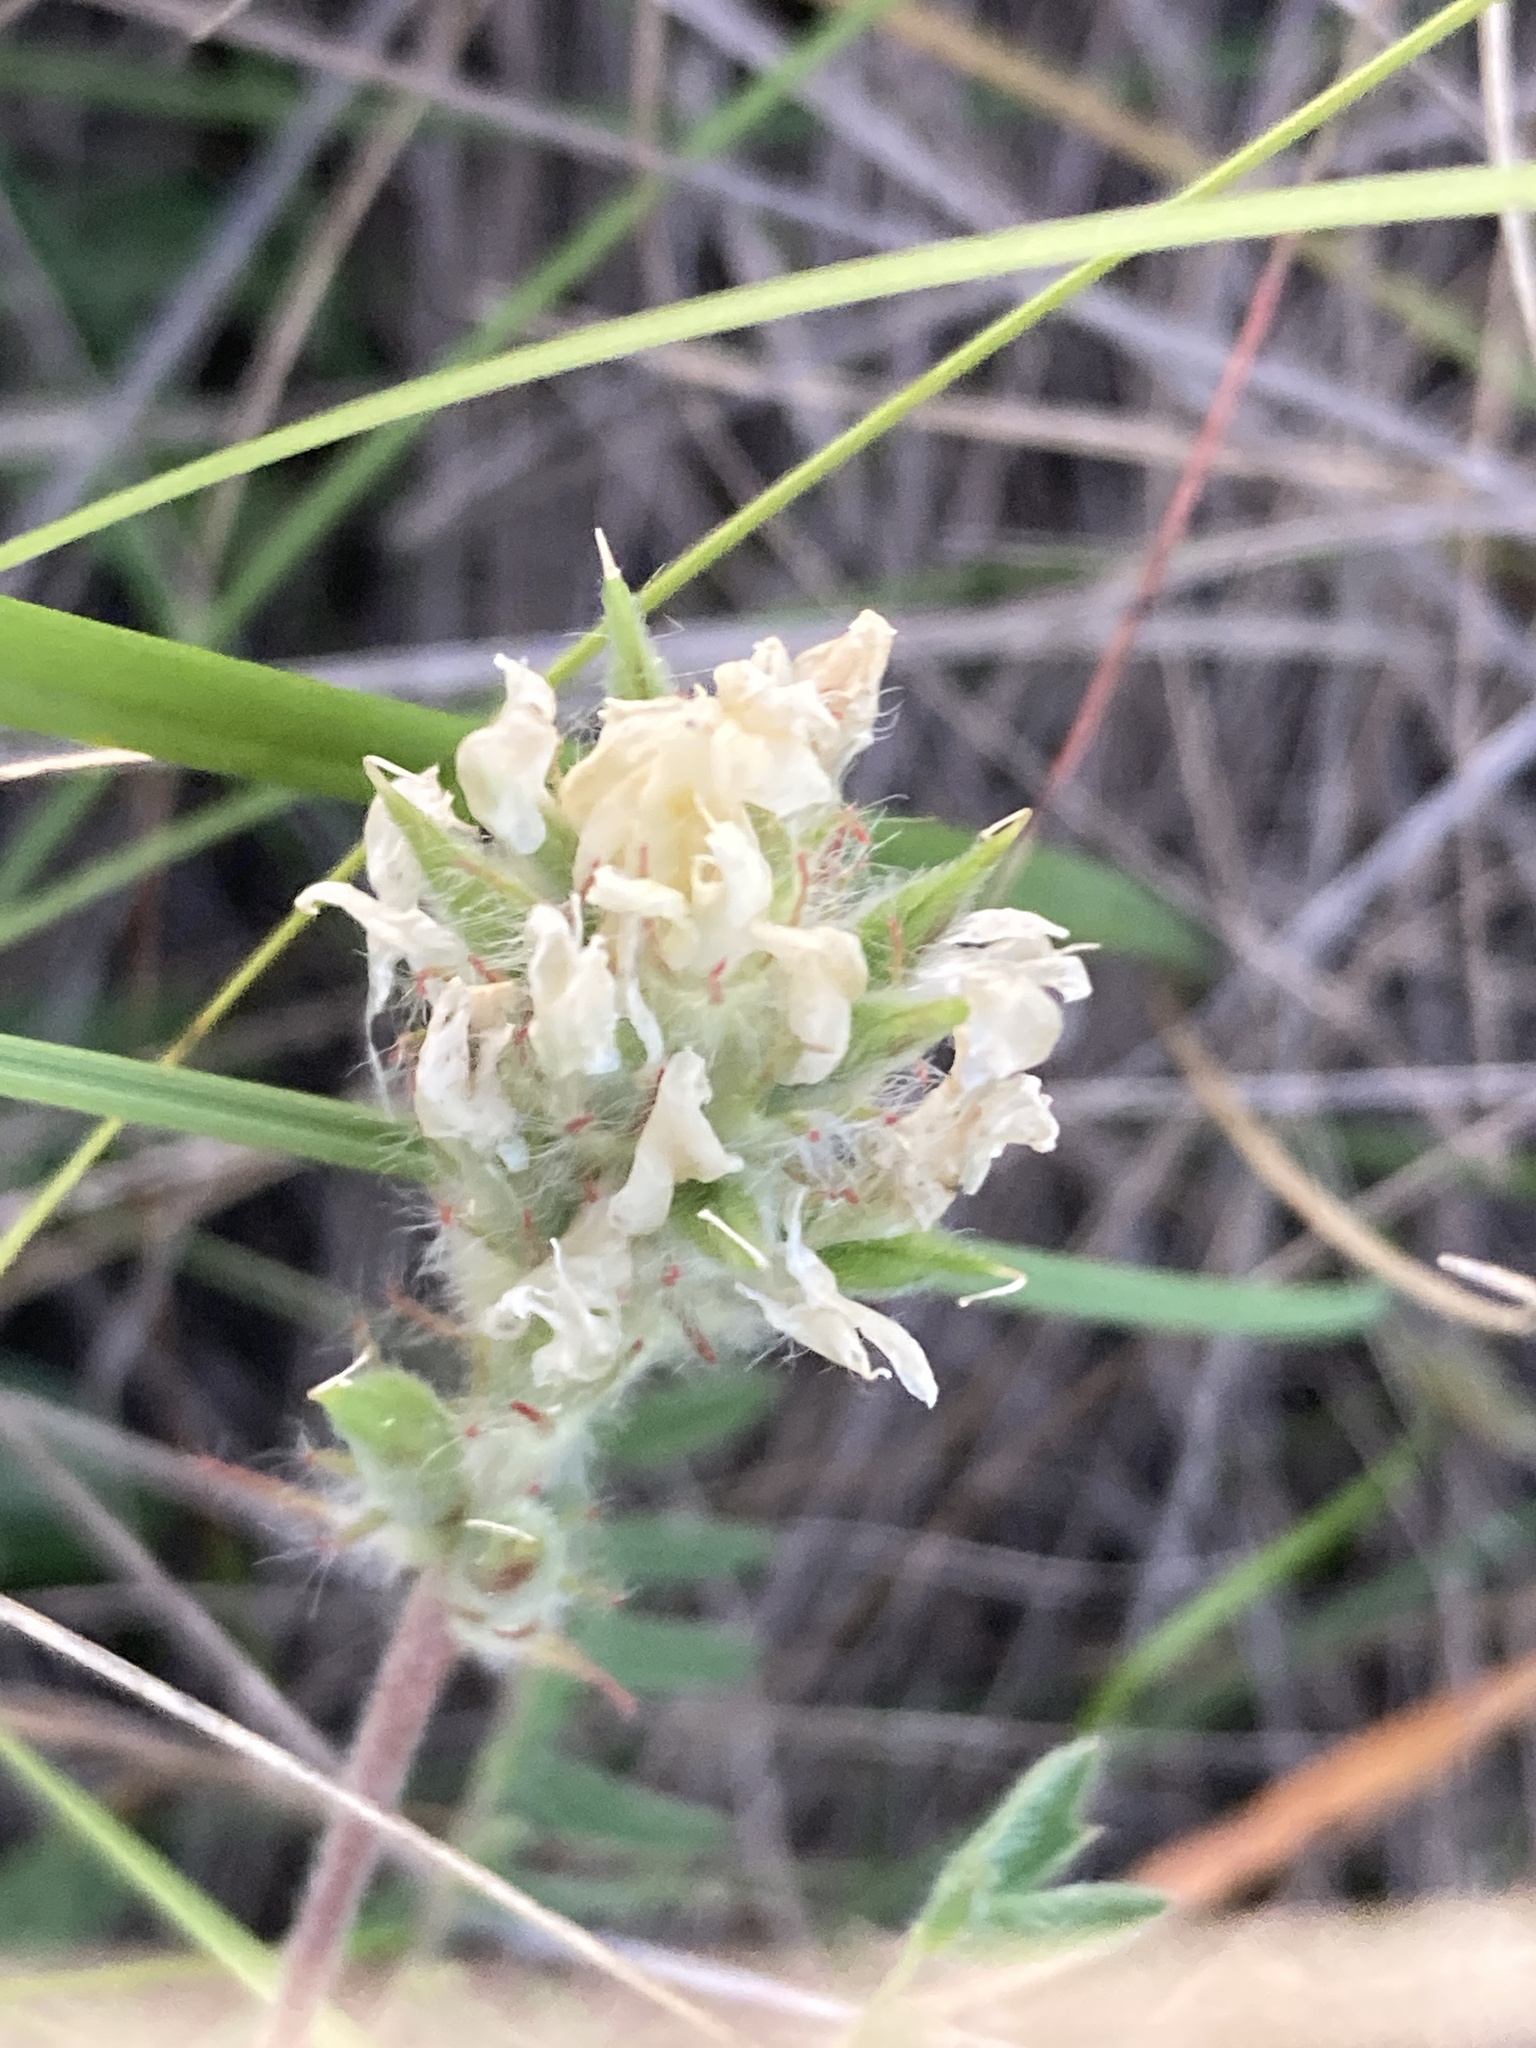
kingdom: Plantae
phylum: Tracheophyta
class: Magnoliopsida
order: Fabales
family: Fabaceae
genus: Oxytropis
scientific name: Oxytropis pilosa
